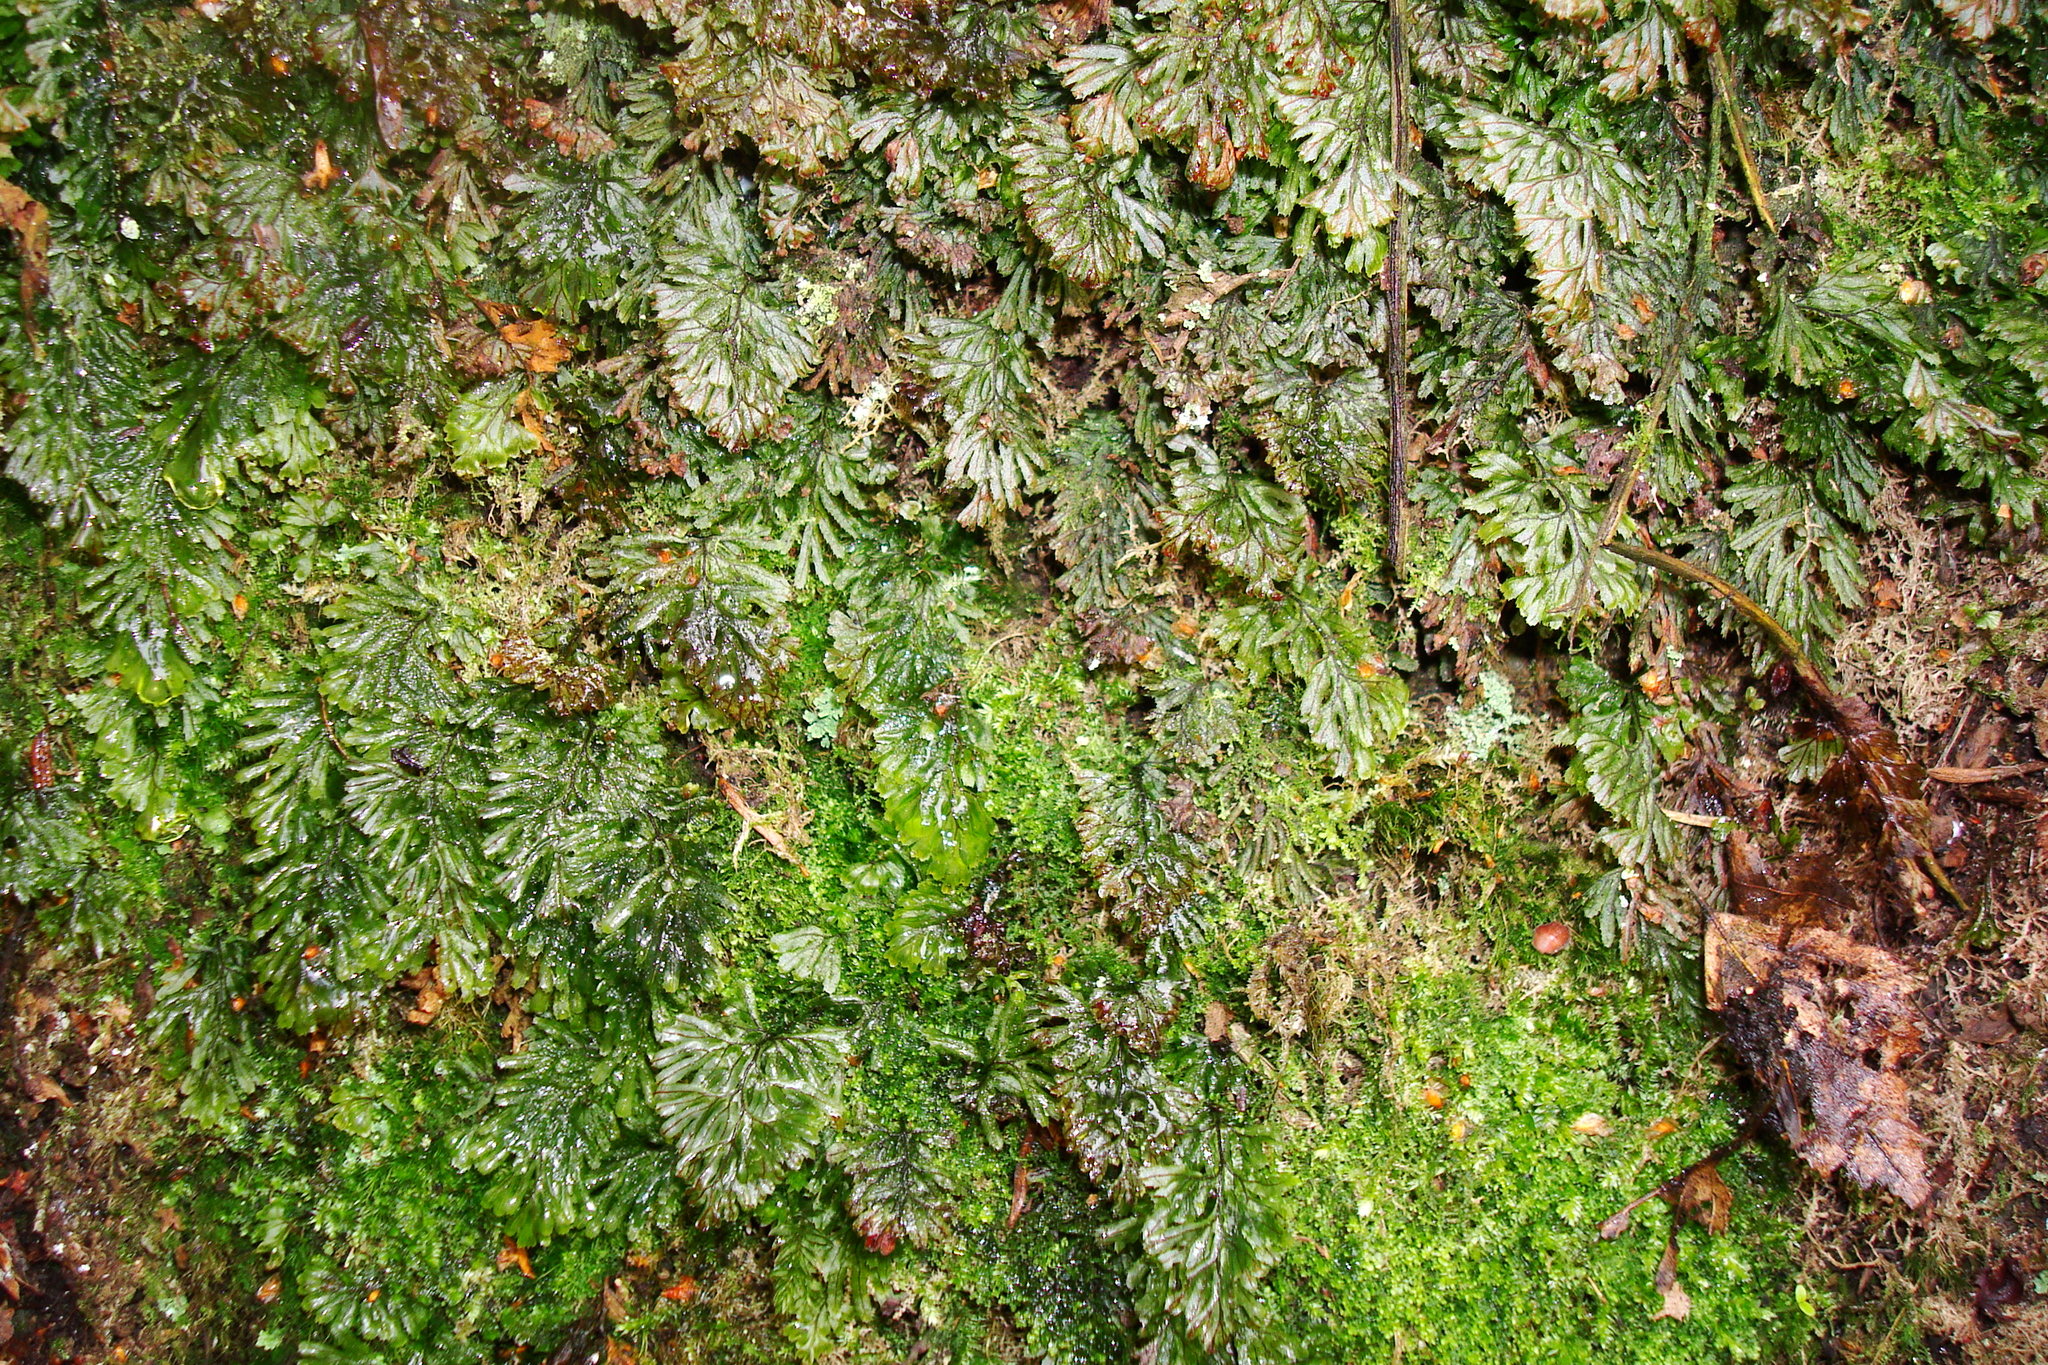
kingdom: Plantae
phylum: Tracheophyta
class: Polypodiopsida
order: Hymenophyllales
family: Hymenophyllaceae
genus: Hymenophyllum
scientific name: Hymenophyllum tunbrigense
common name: Tunbridge filmy fern
